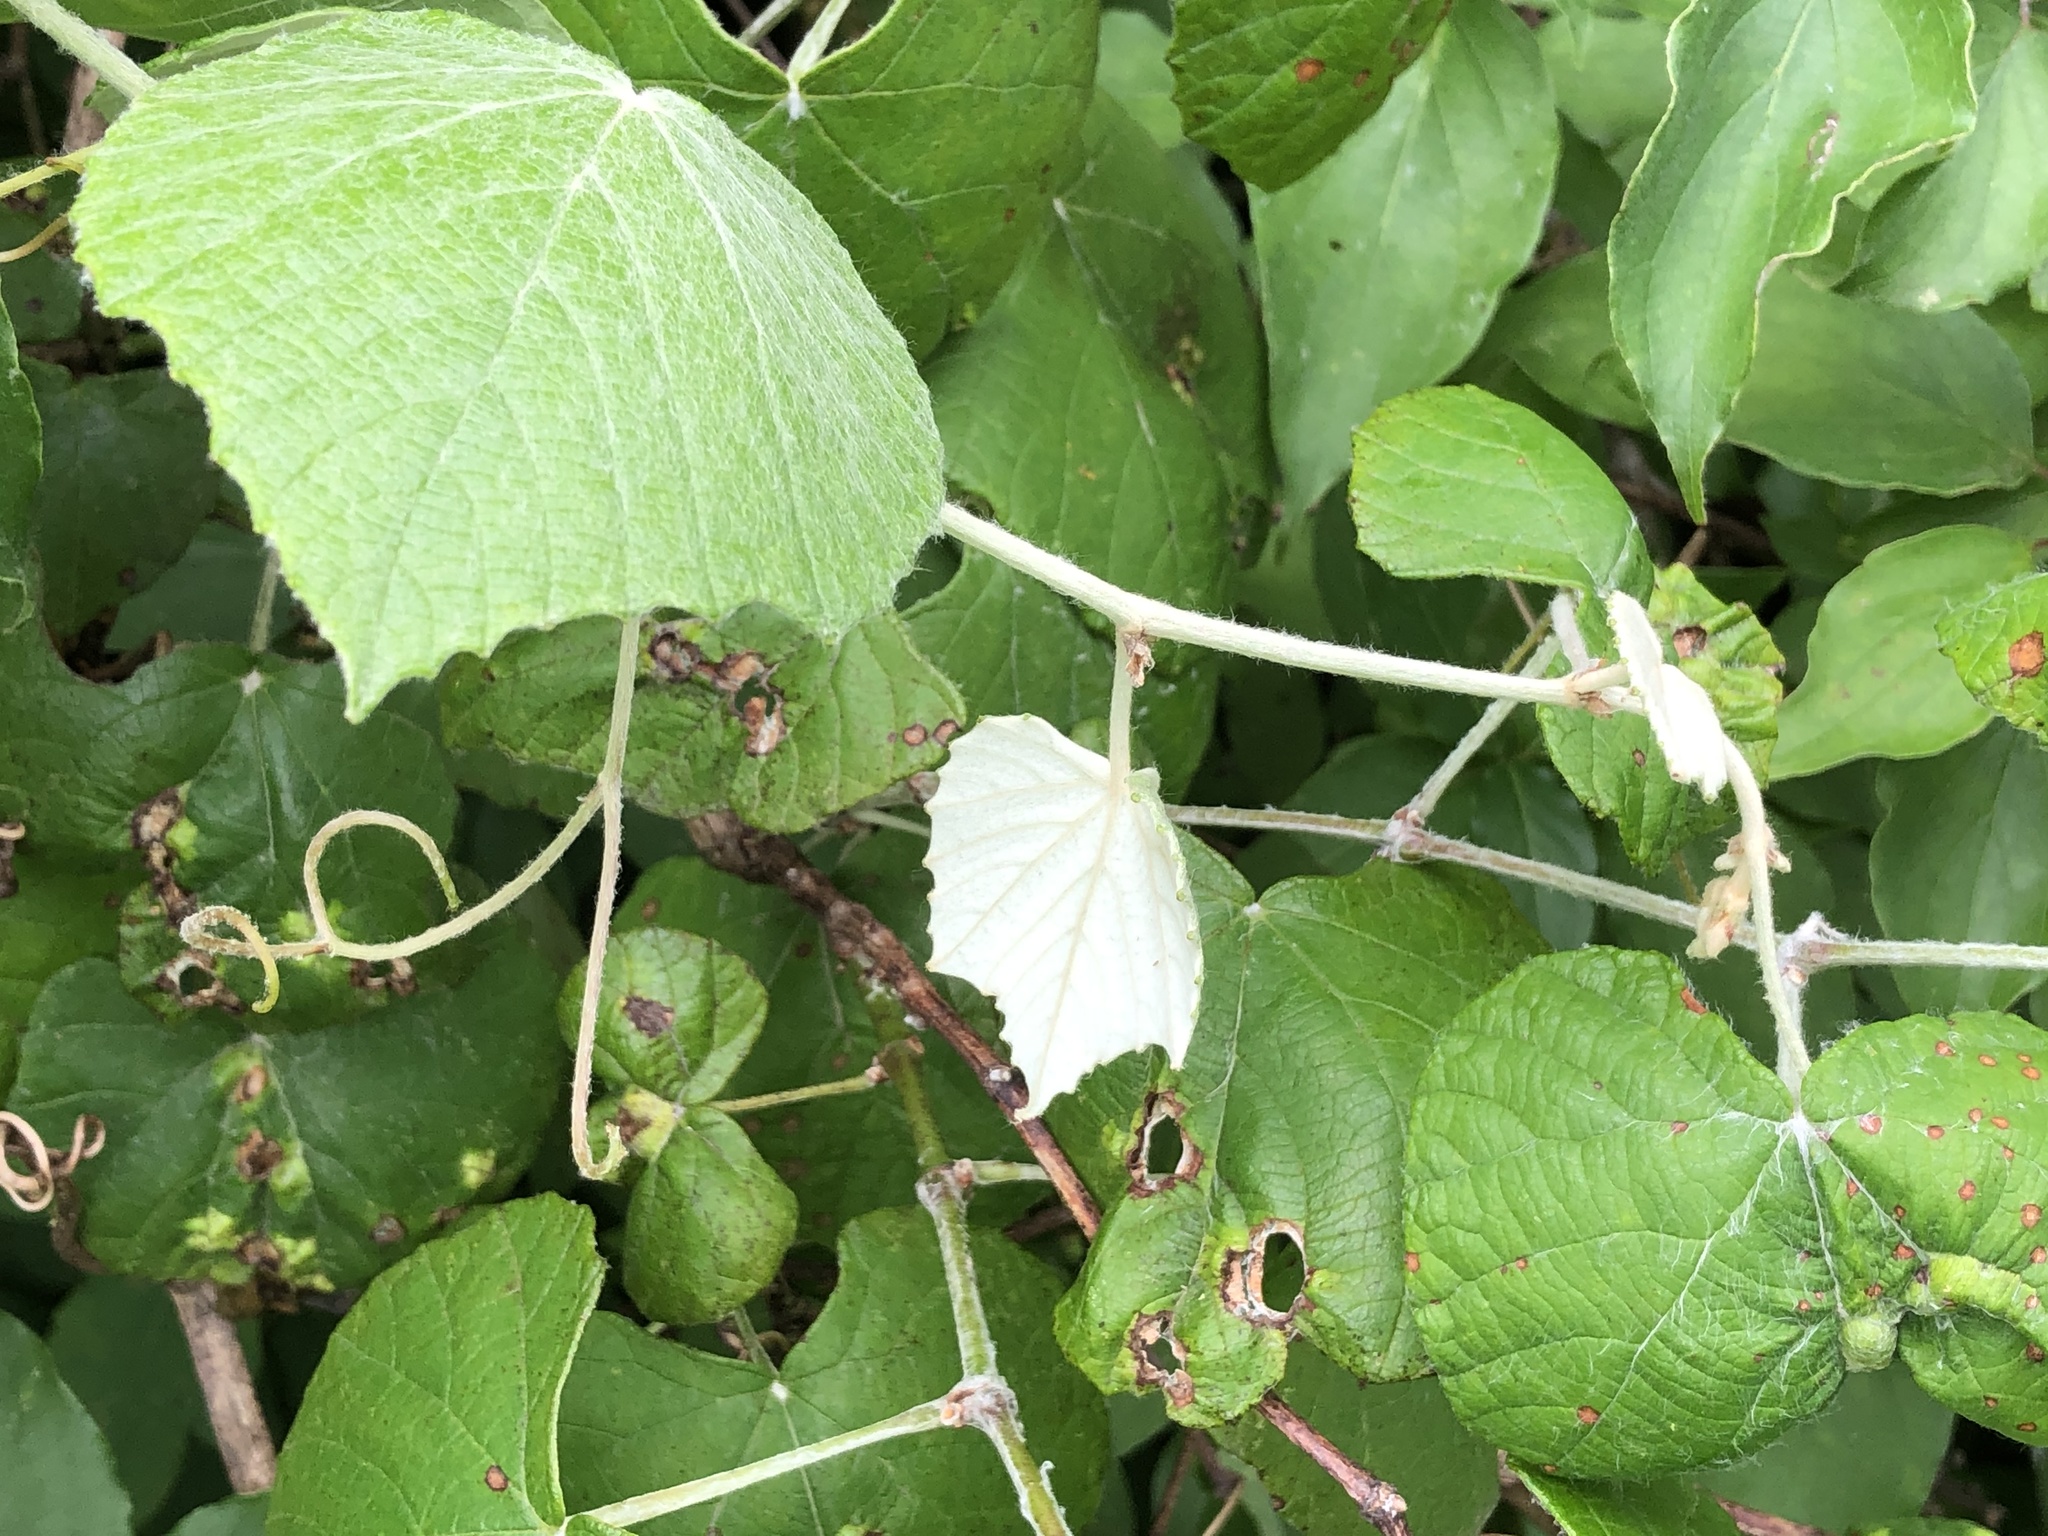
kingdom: Plantae
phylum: Tracheophyta
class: Magnoliopsida
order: Vitales
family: Vitaceae
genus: Vitis
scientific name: Vitis mustangensis
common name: Mustang grape
